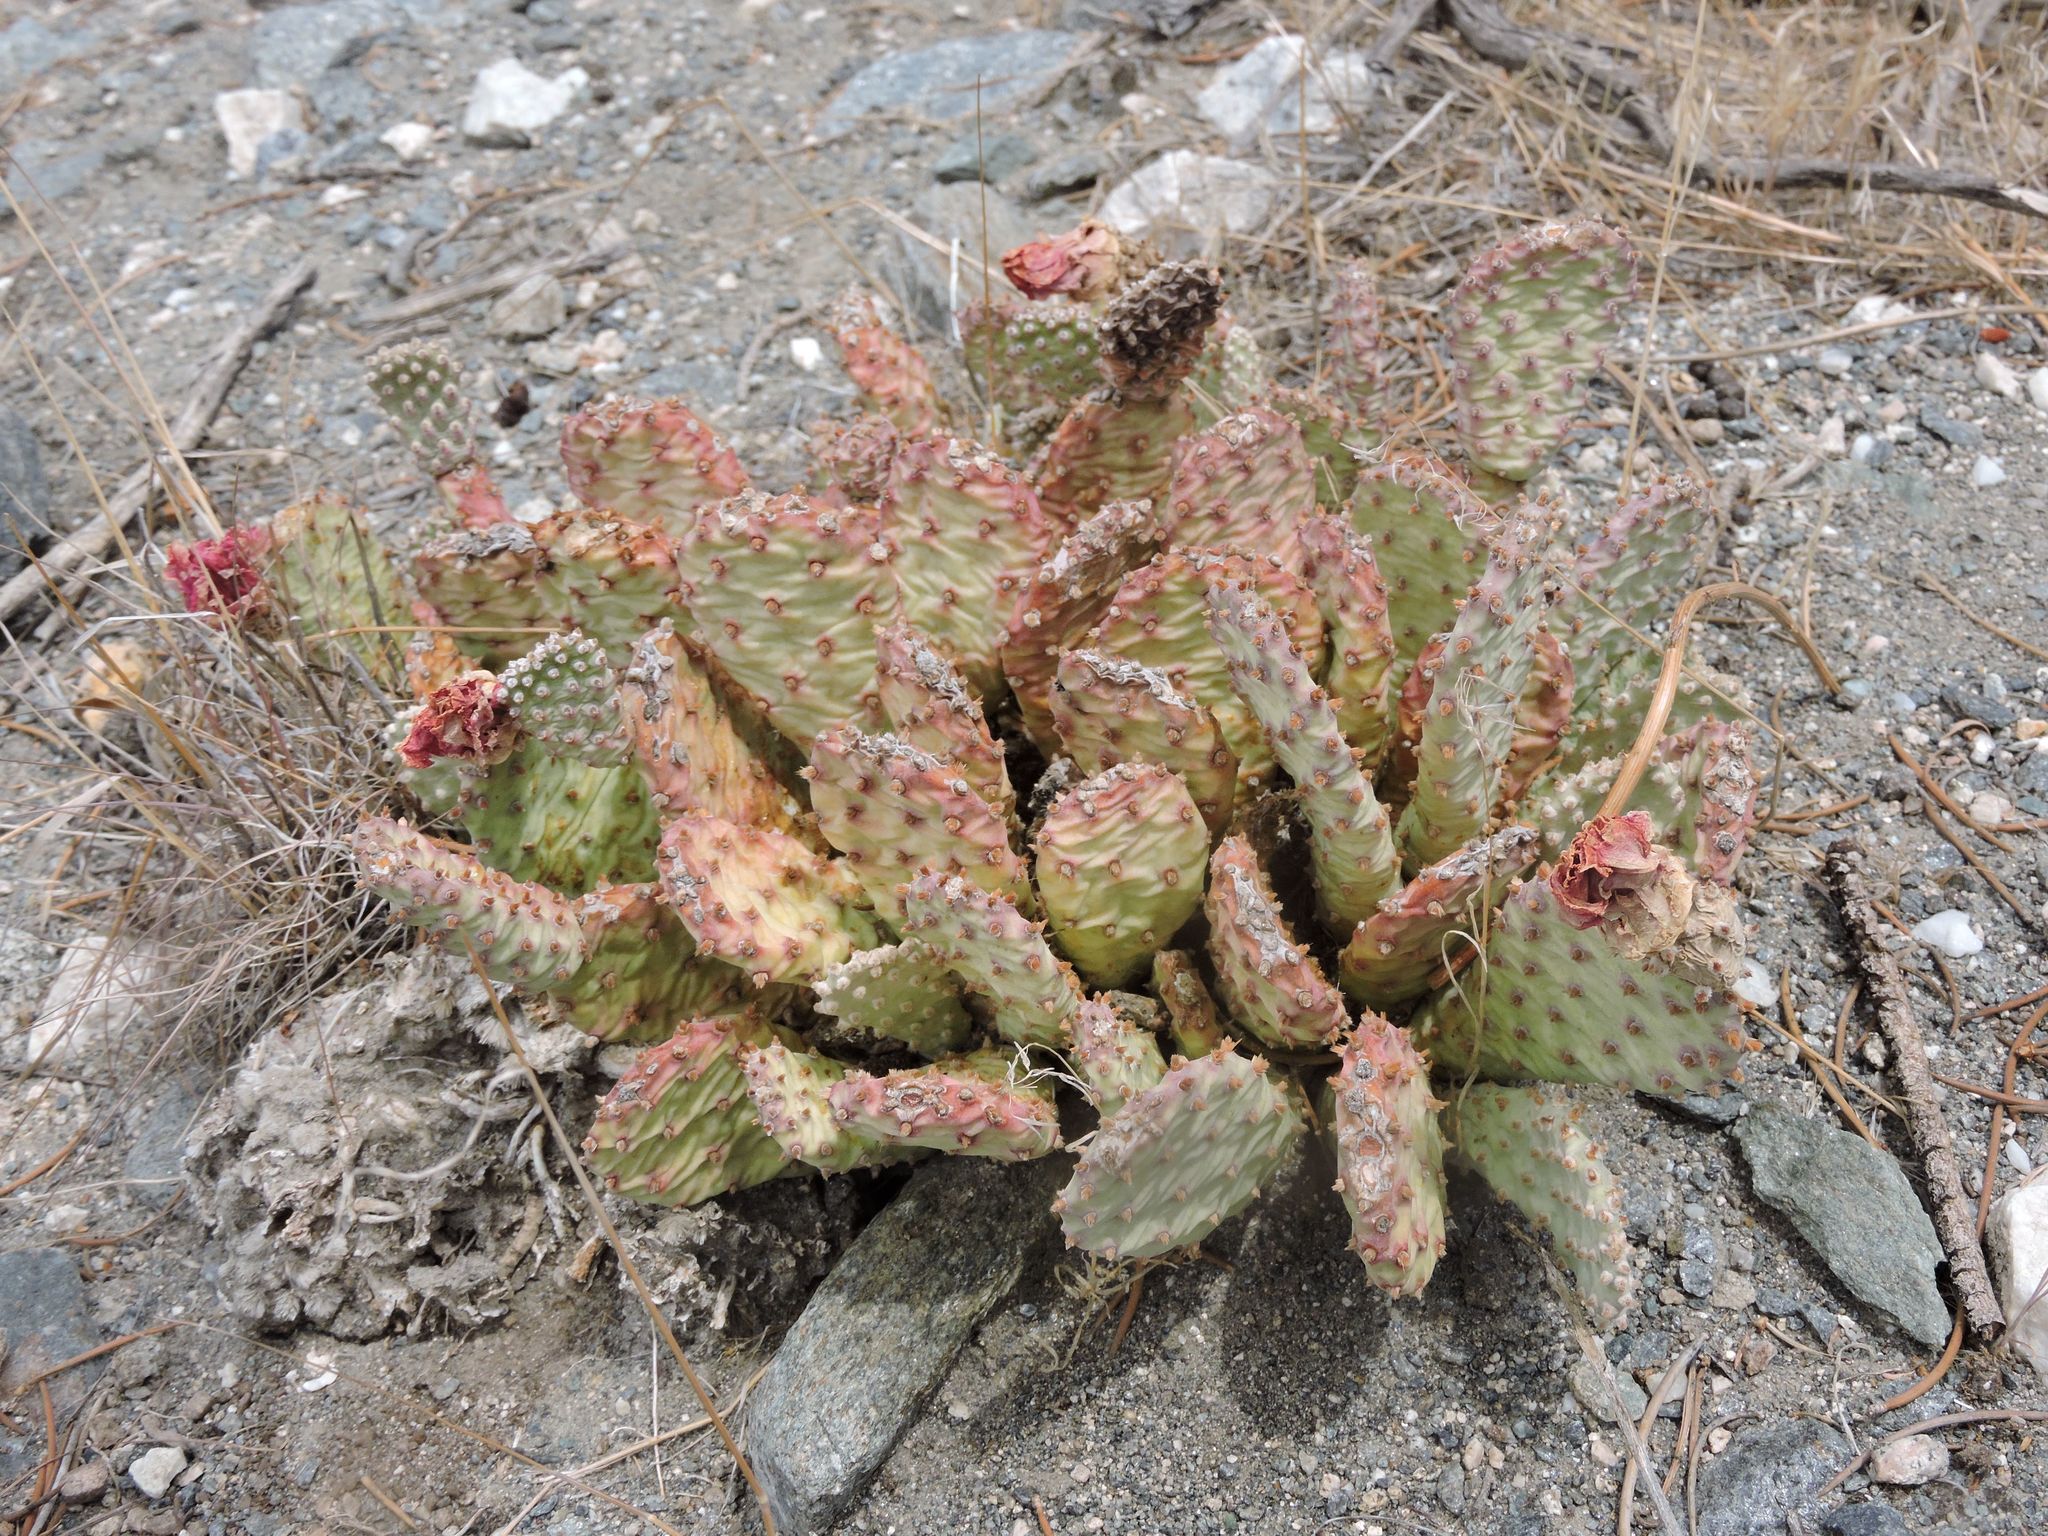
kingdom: Plantae
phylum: Tracheophyta
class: Magnoliopsida
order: Caryophyllales
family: Cactaceae
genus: Opuntia
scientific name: Opuntia basilaris
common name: Beavertail prickly-pear
